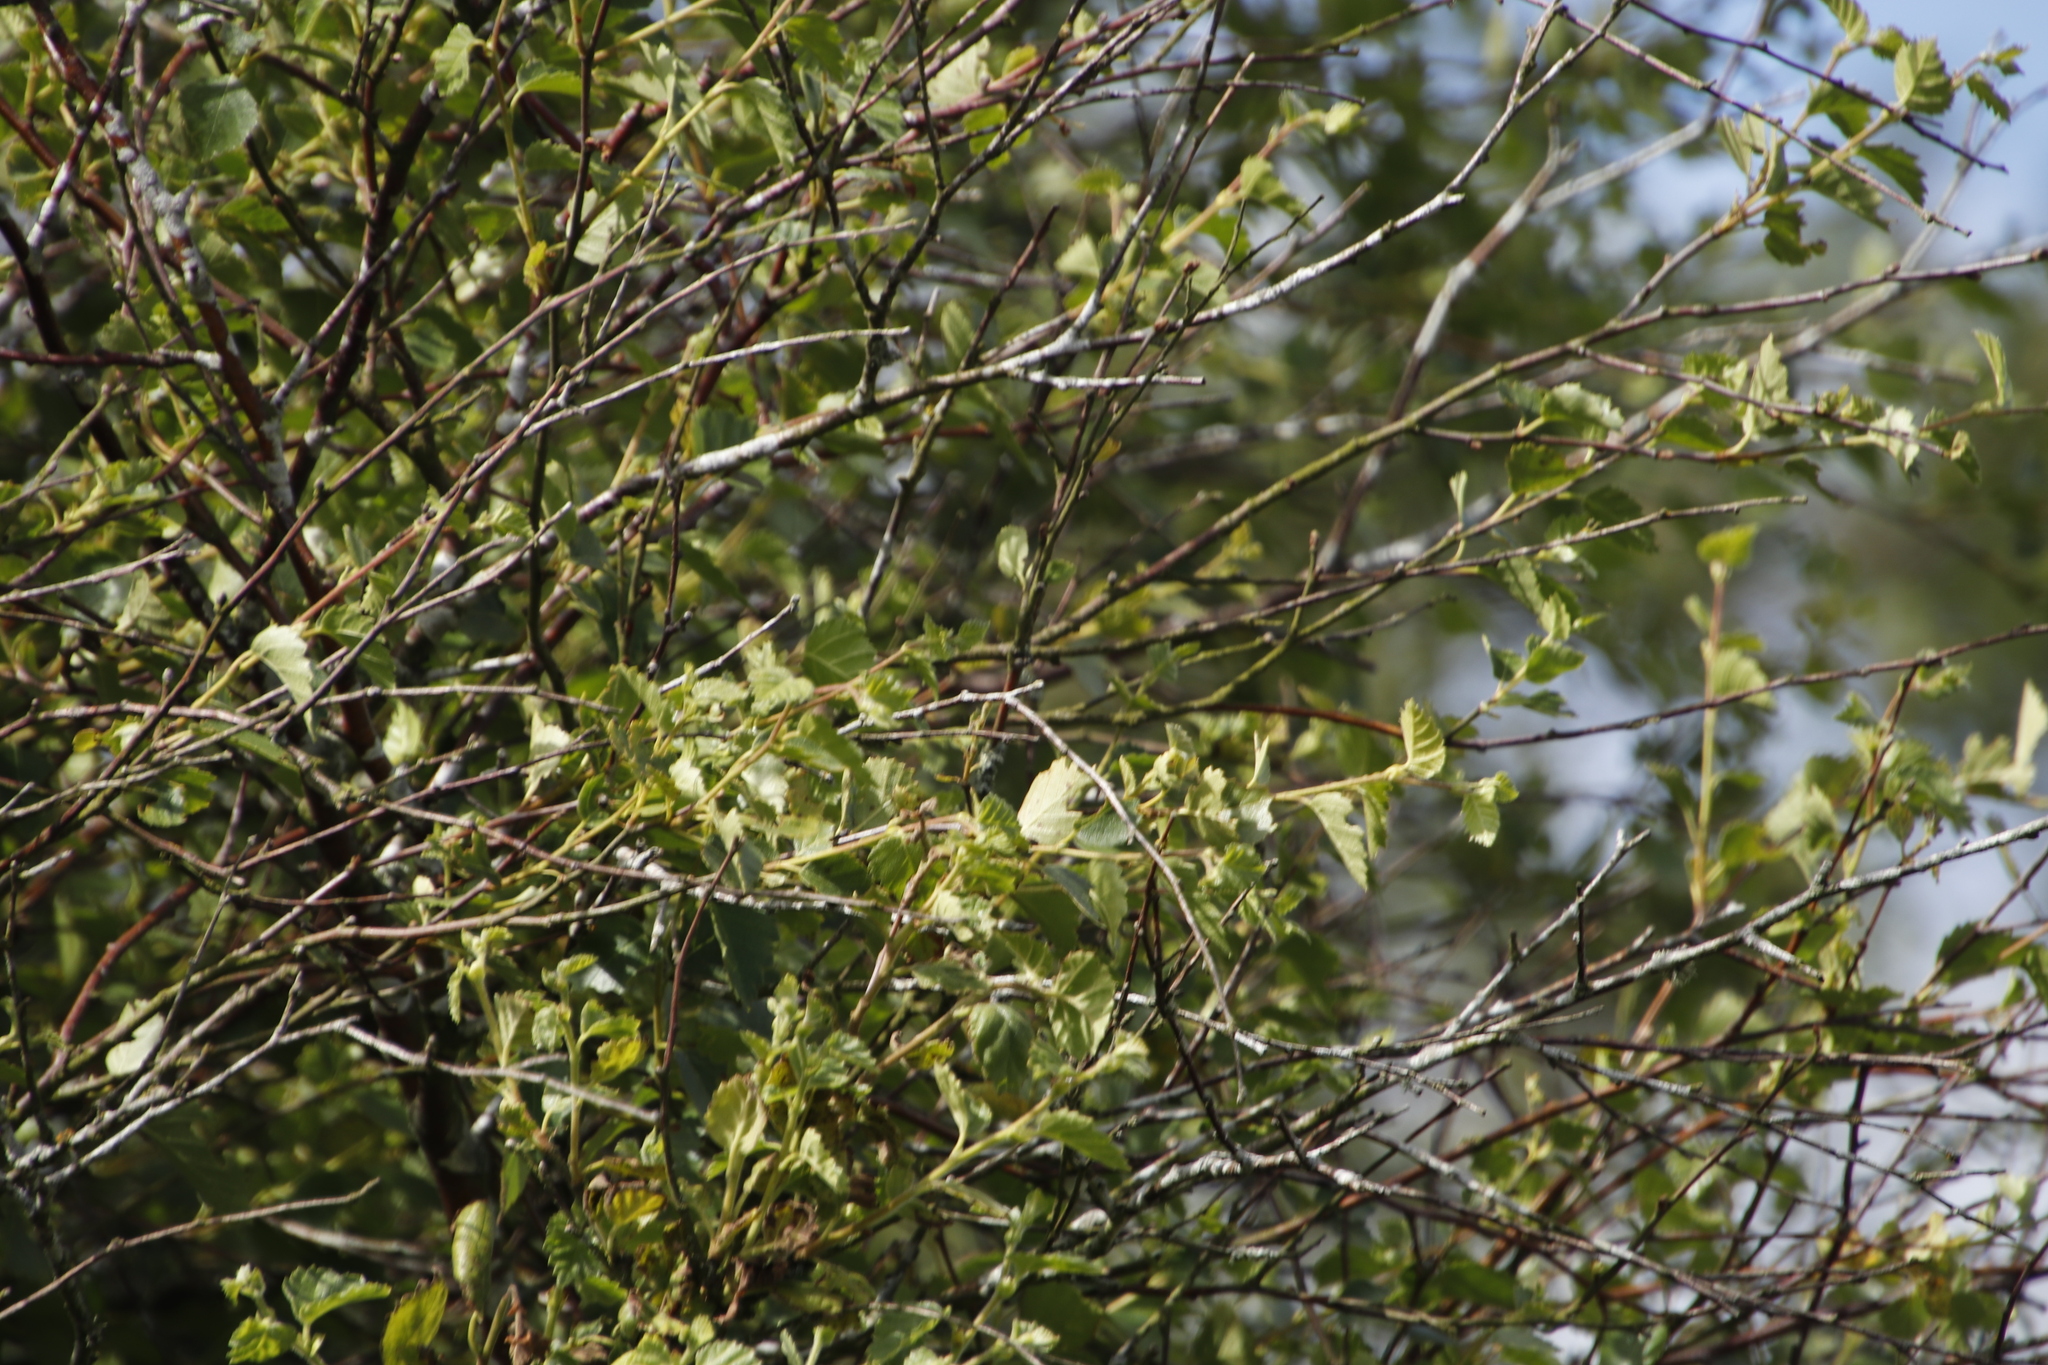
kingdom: Plantae
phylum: Tracheophyta
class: Magnoliopsida
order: Fagales
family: Betulaceae
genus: Betula
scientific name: Betula pendula
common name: Silver birch
